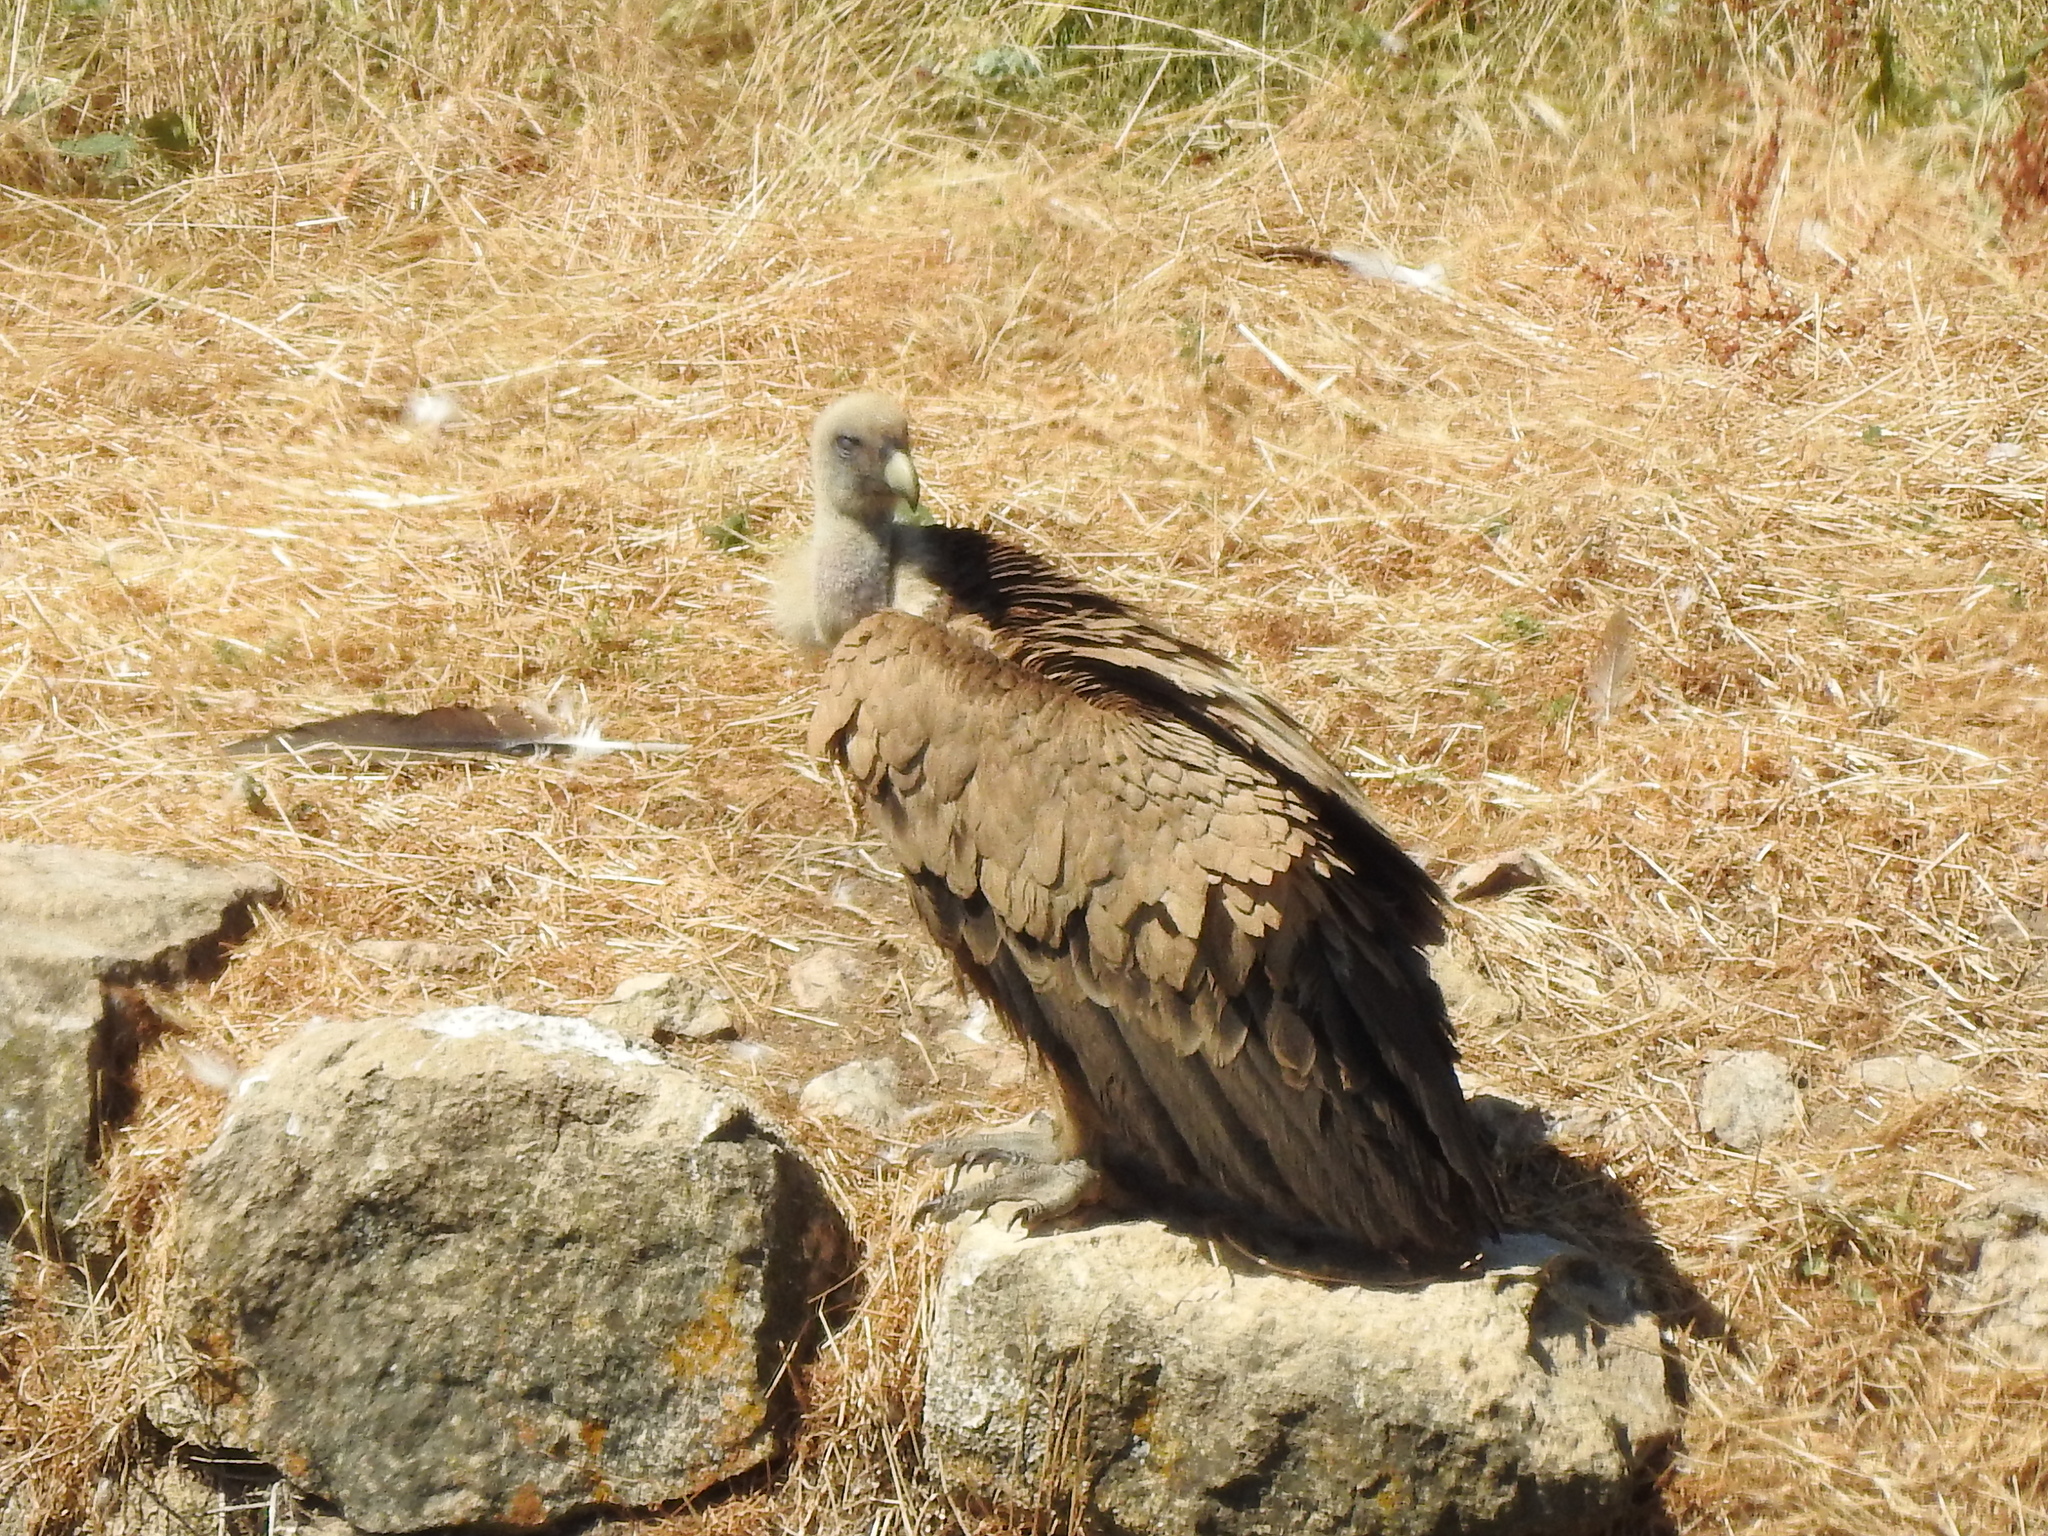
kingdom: Animalia
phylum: Chordata
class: Aves
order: Accipitriformes
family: Accipitridae
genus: Gyps
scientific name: Gyps fulvus
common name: Griffon vulture
